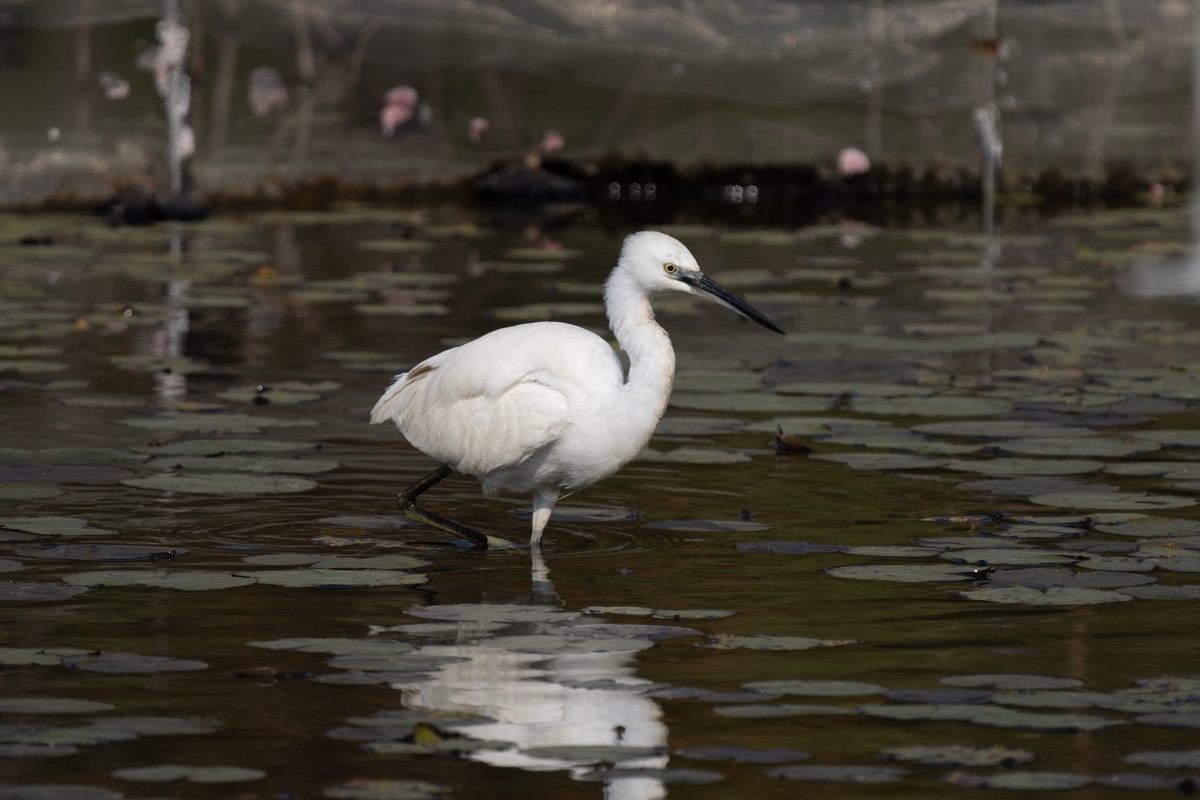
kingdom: Animalia
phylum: Chordata
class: Aves
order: Pelecaniformes
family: Ardeidae
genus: Egretta
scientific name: Egretta garzetta
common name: Little egret
